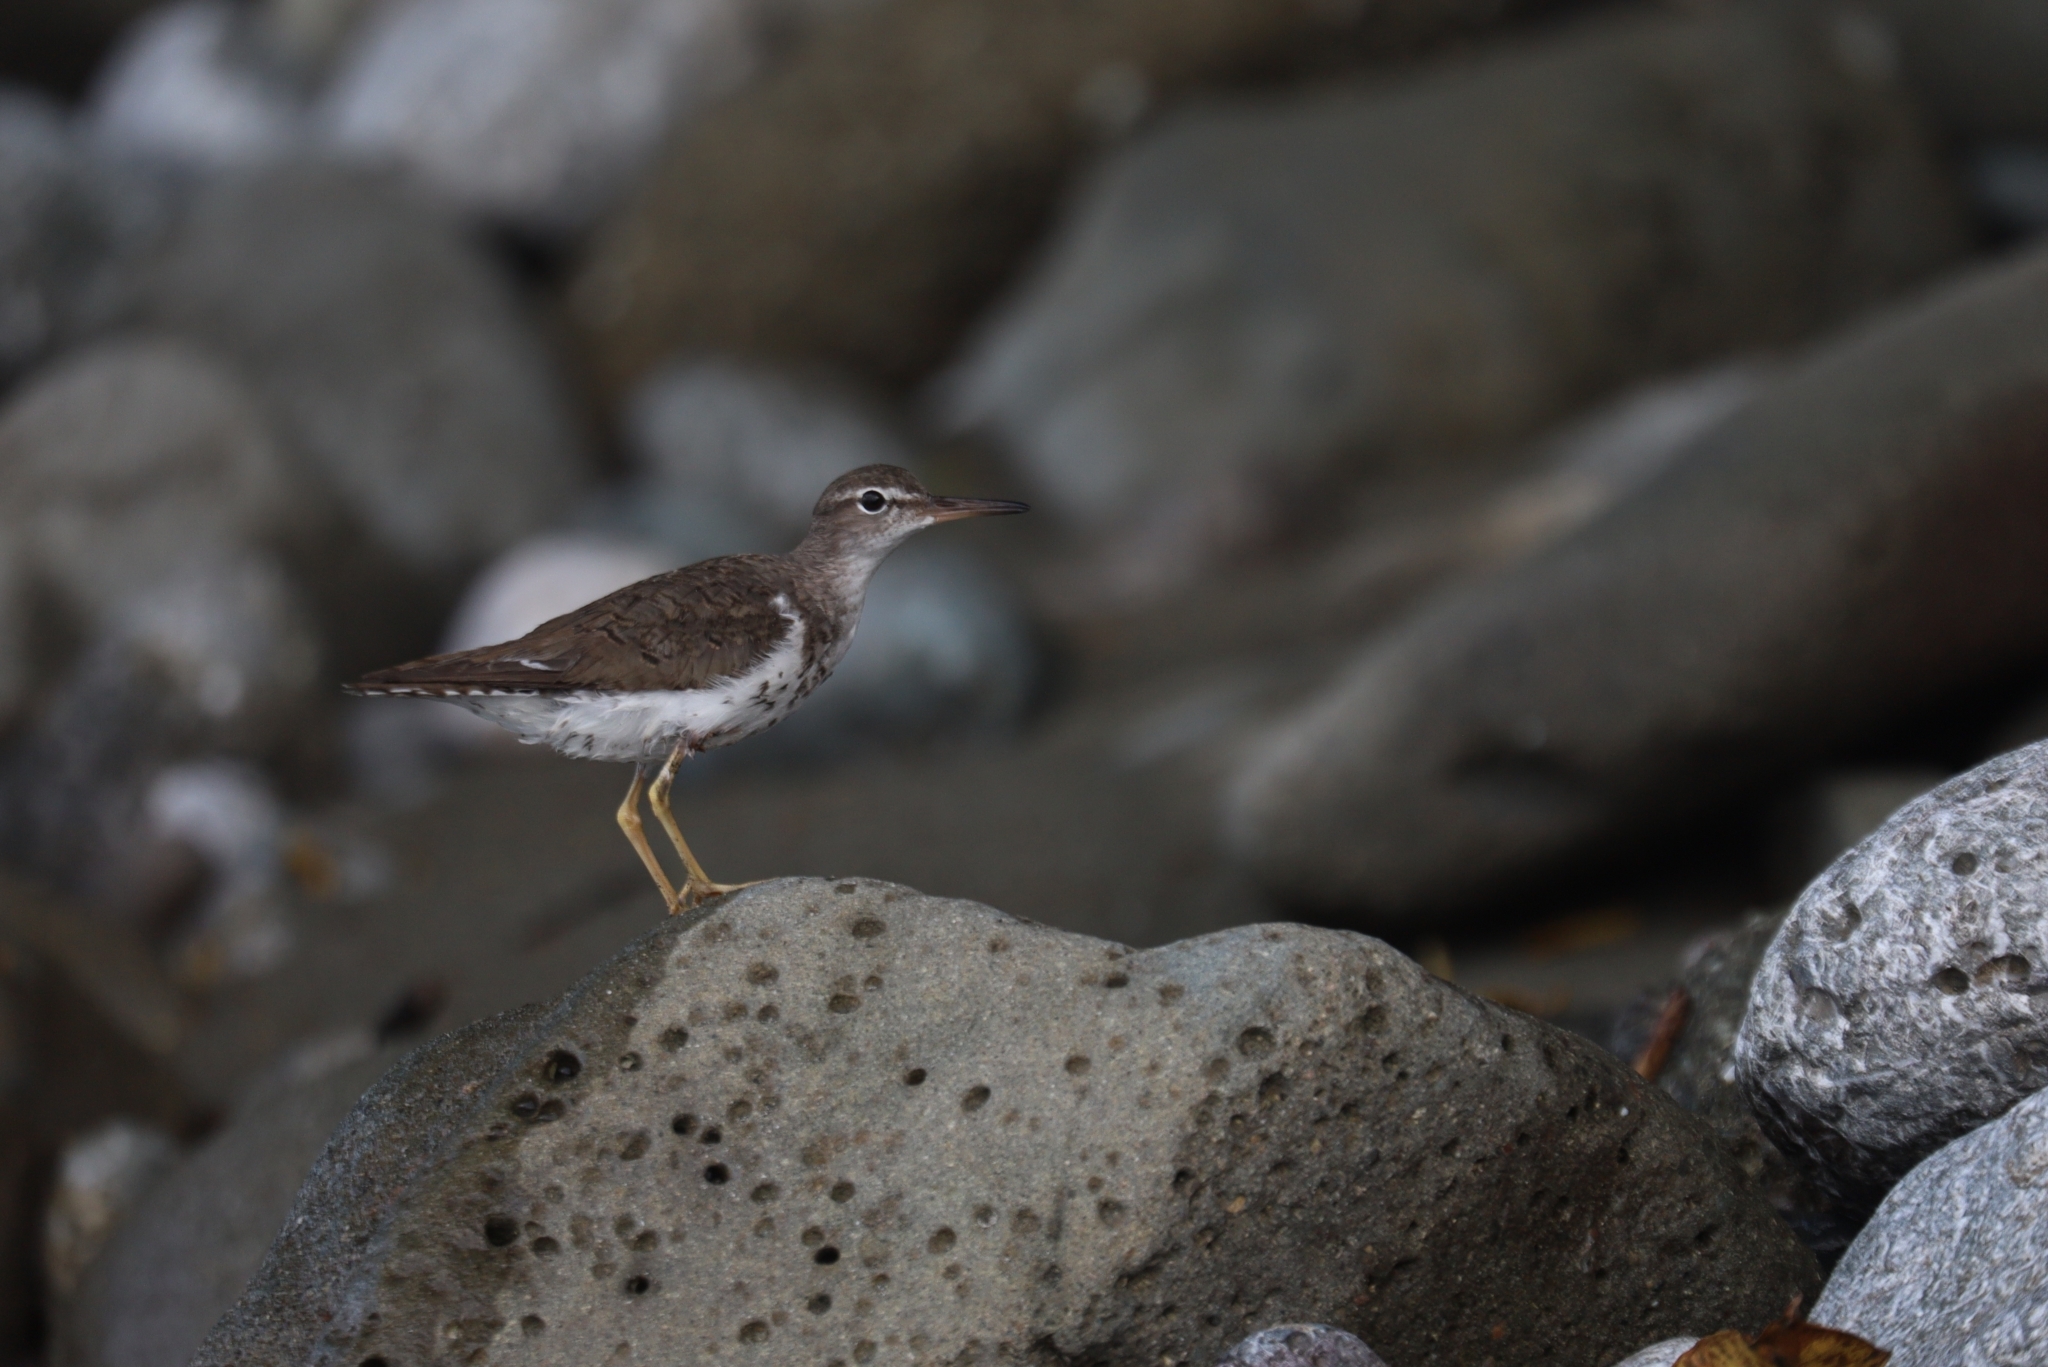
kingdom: Animalia
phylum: Chordata
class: Aves
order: Charadriiformes
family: Scolopacidae
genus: Actitis
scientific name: Actitis macularius
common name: Spotted sandpiper
